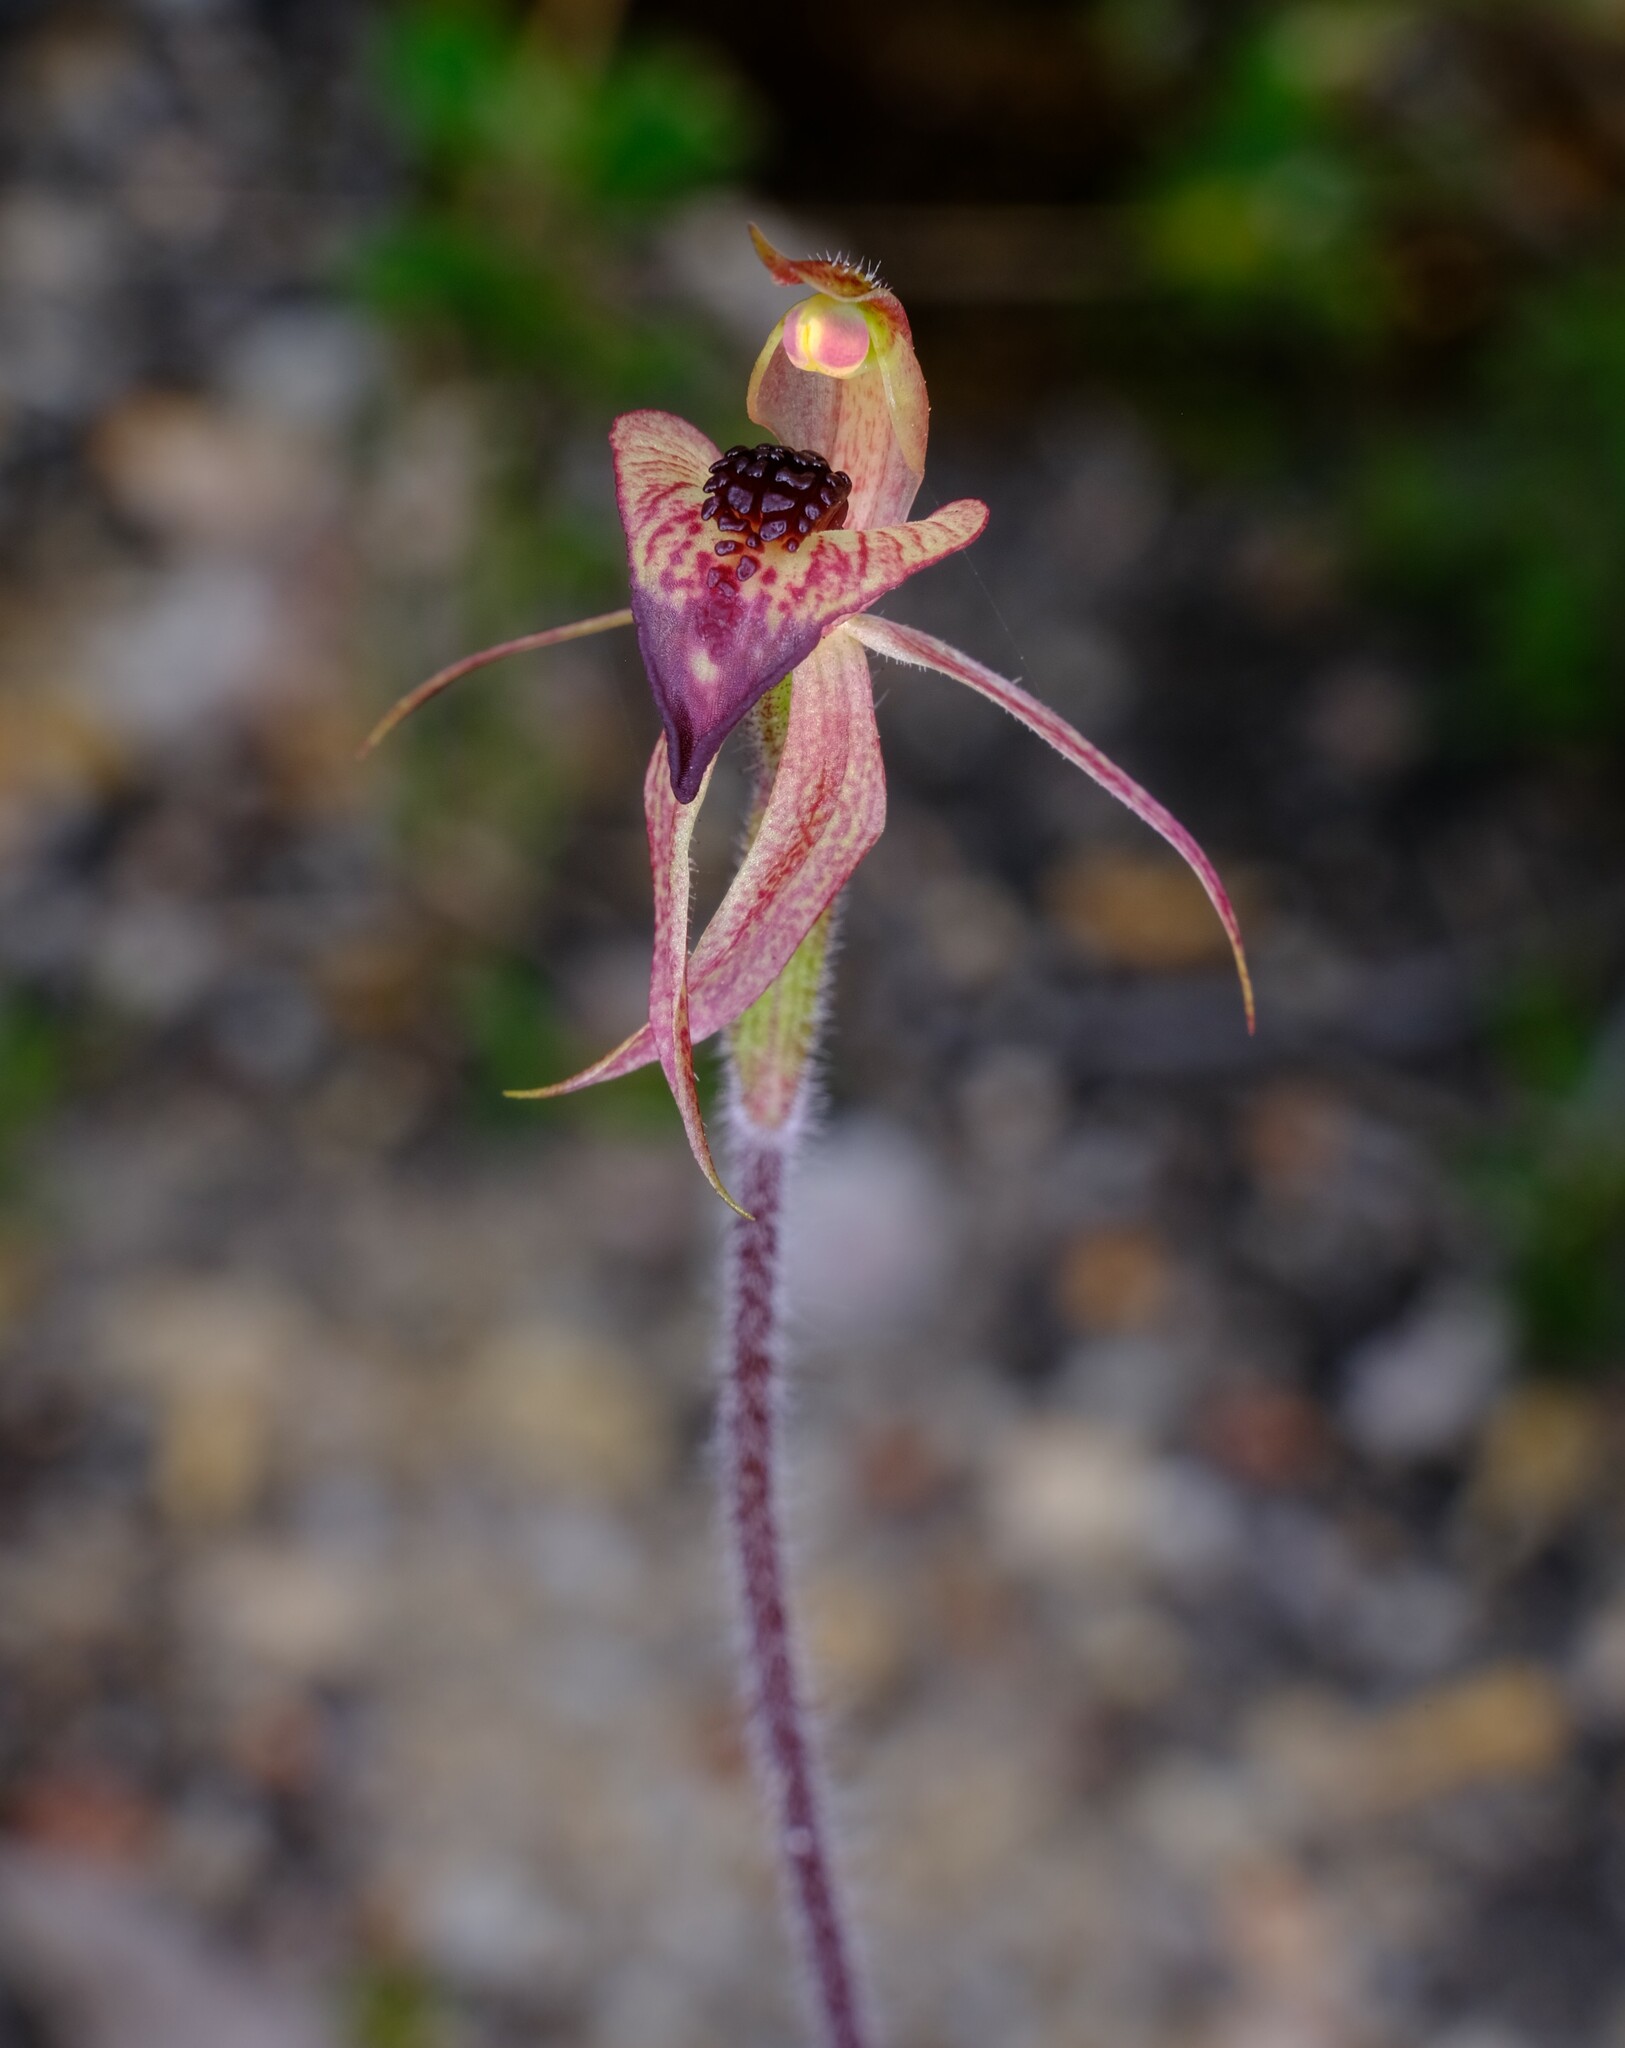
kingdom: Plantae
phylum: Tracheophyta
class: Liliopsida
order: Asparagales
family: Orchidaceae
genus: Caladenia
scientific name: Caladenia tessellata
